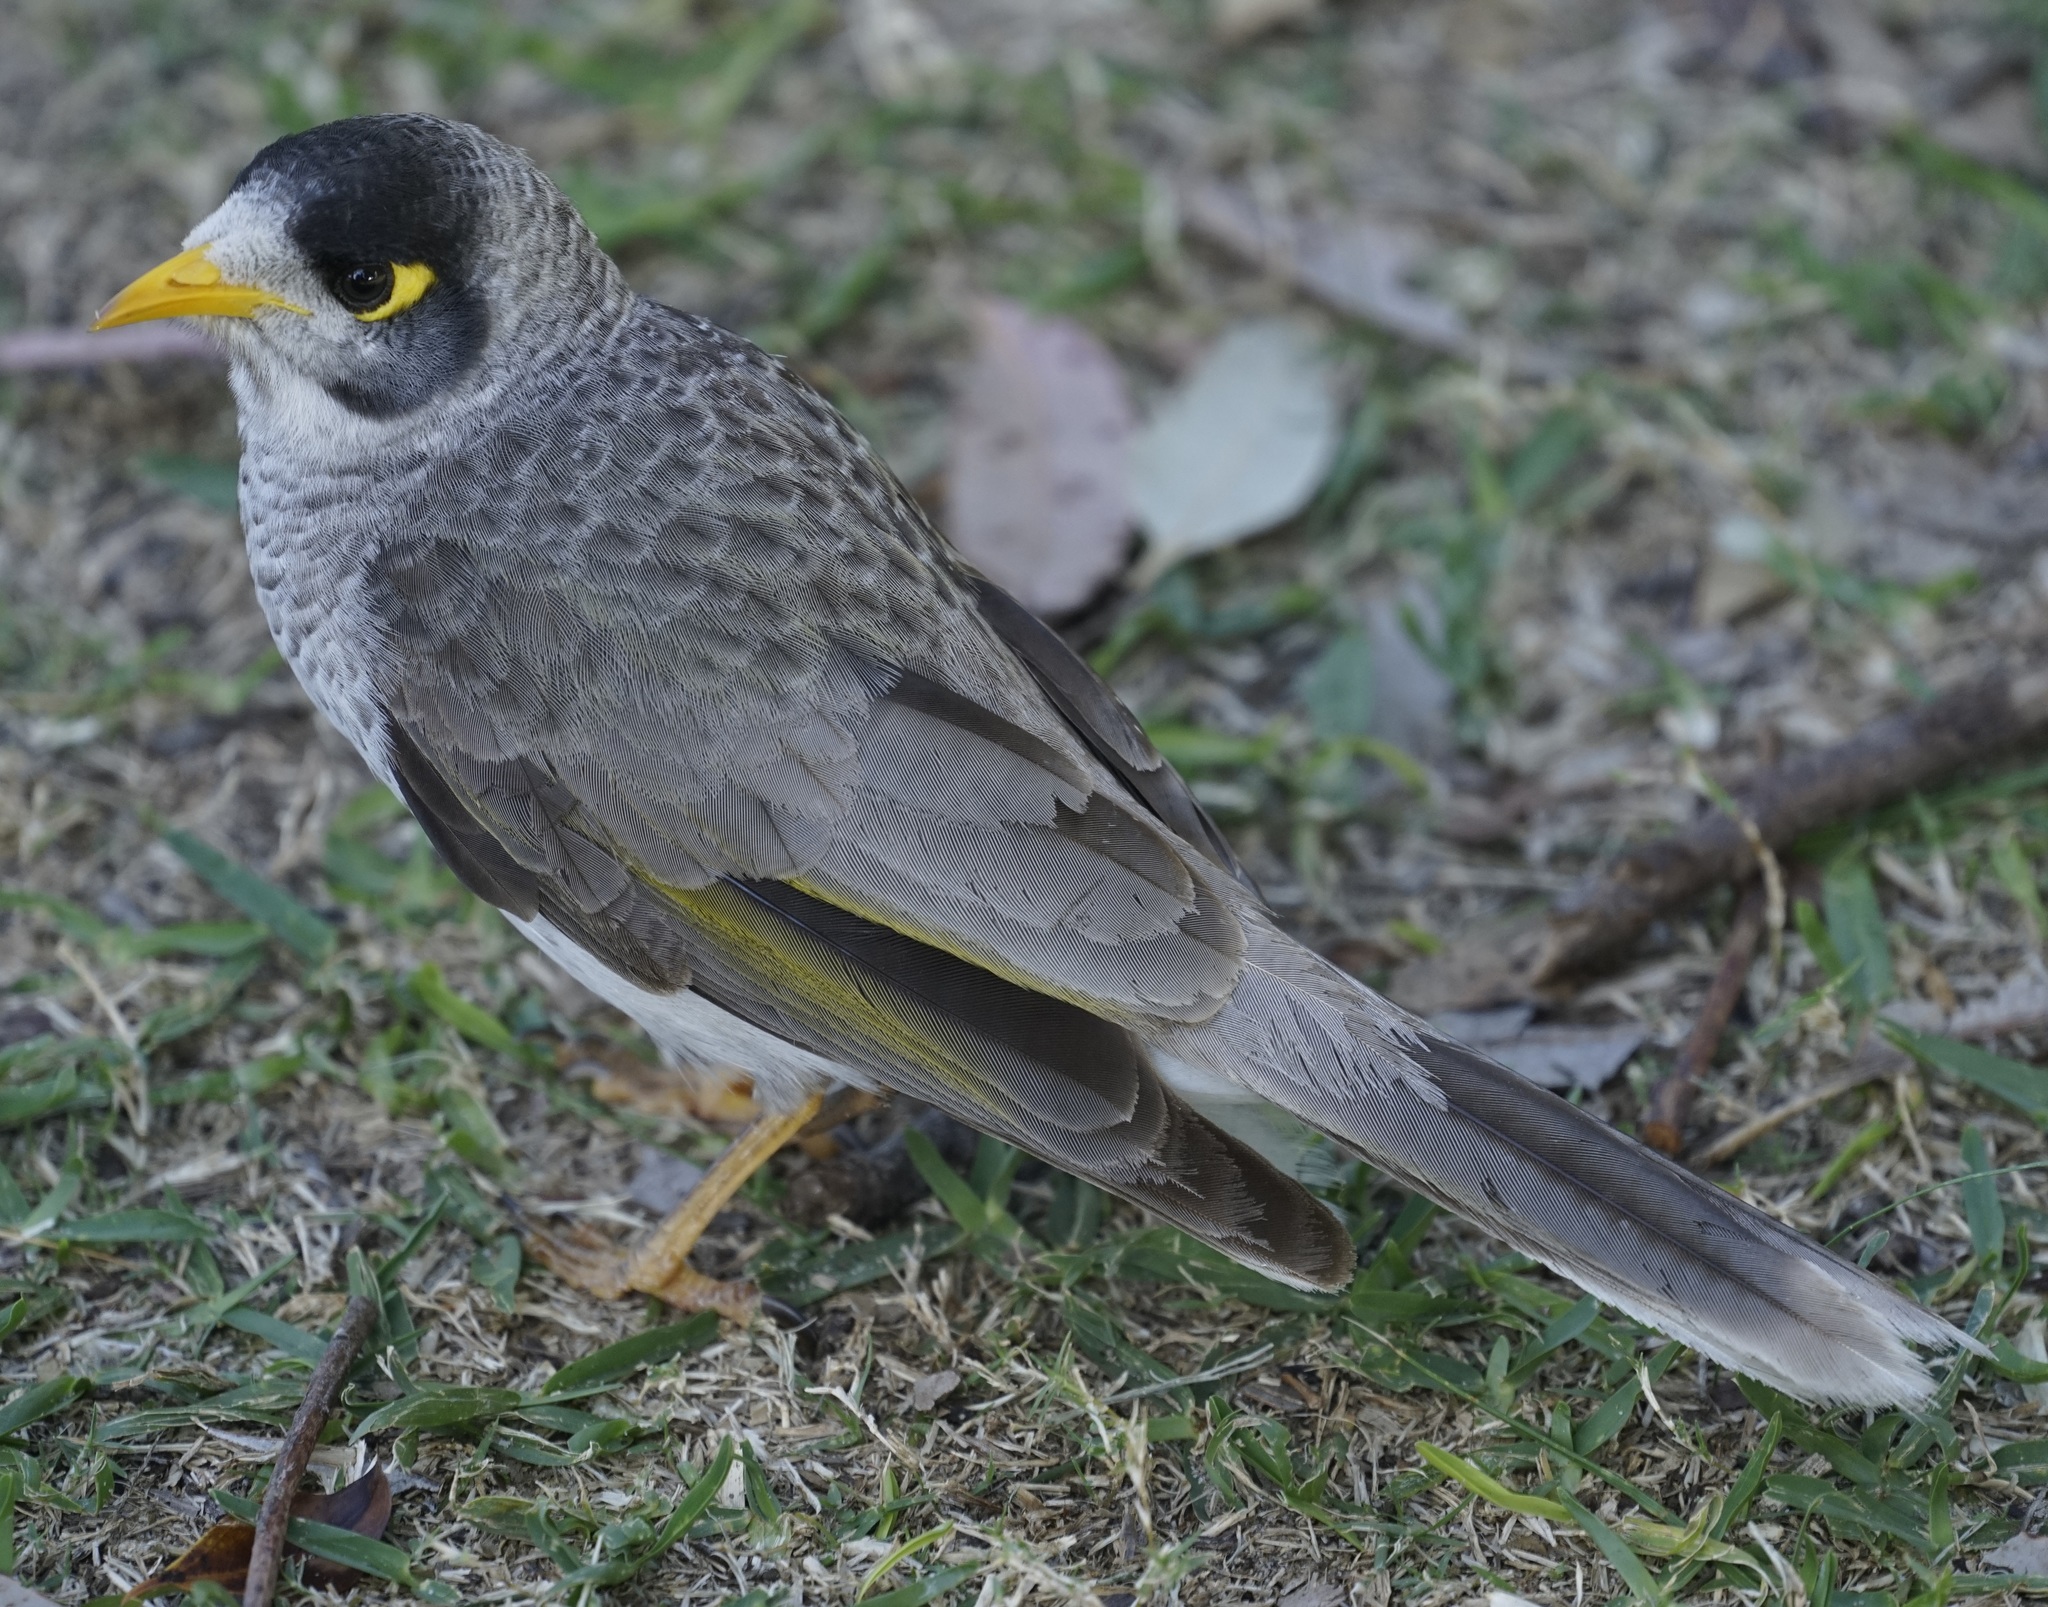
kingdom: Animalia
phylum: Chordata
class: Aves
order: Passeriformes
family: Meliphagidae
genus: Manorina
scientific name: Manorina melanocephala
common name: Noisy miner
